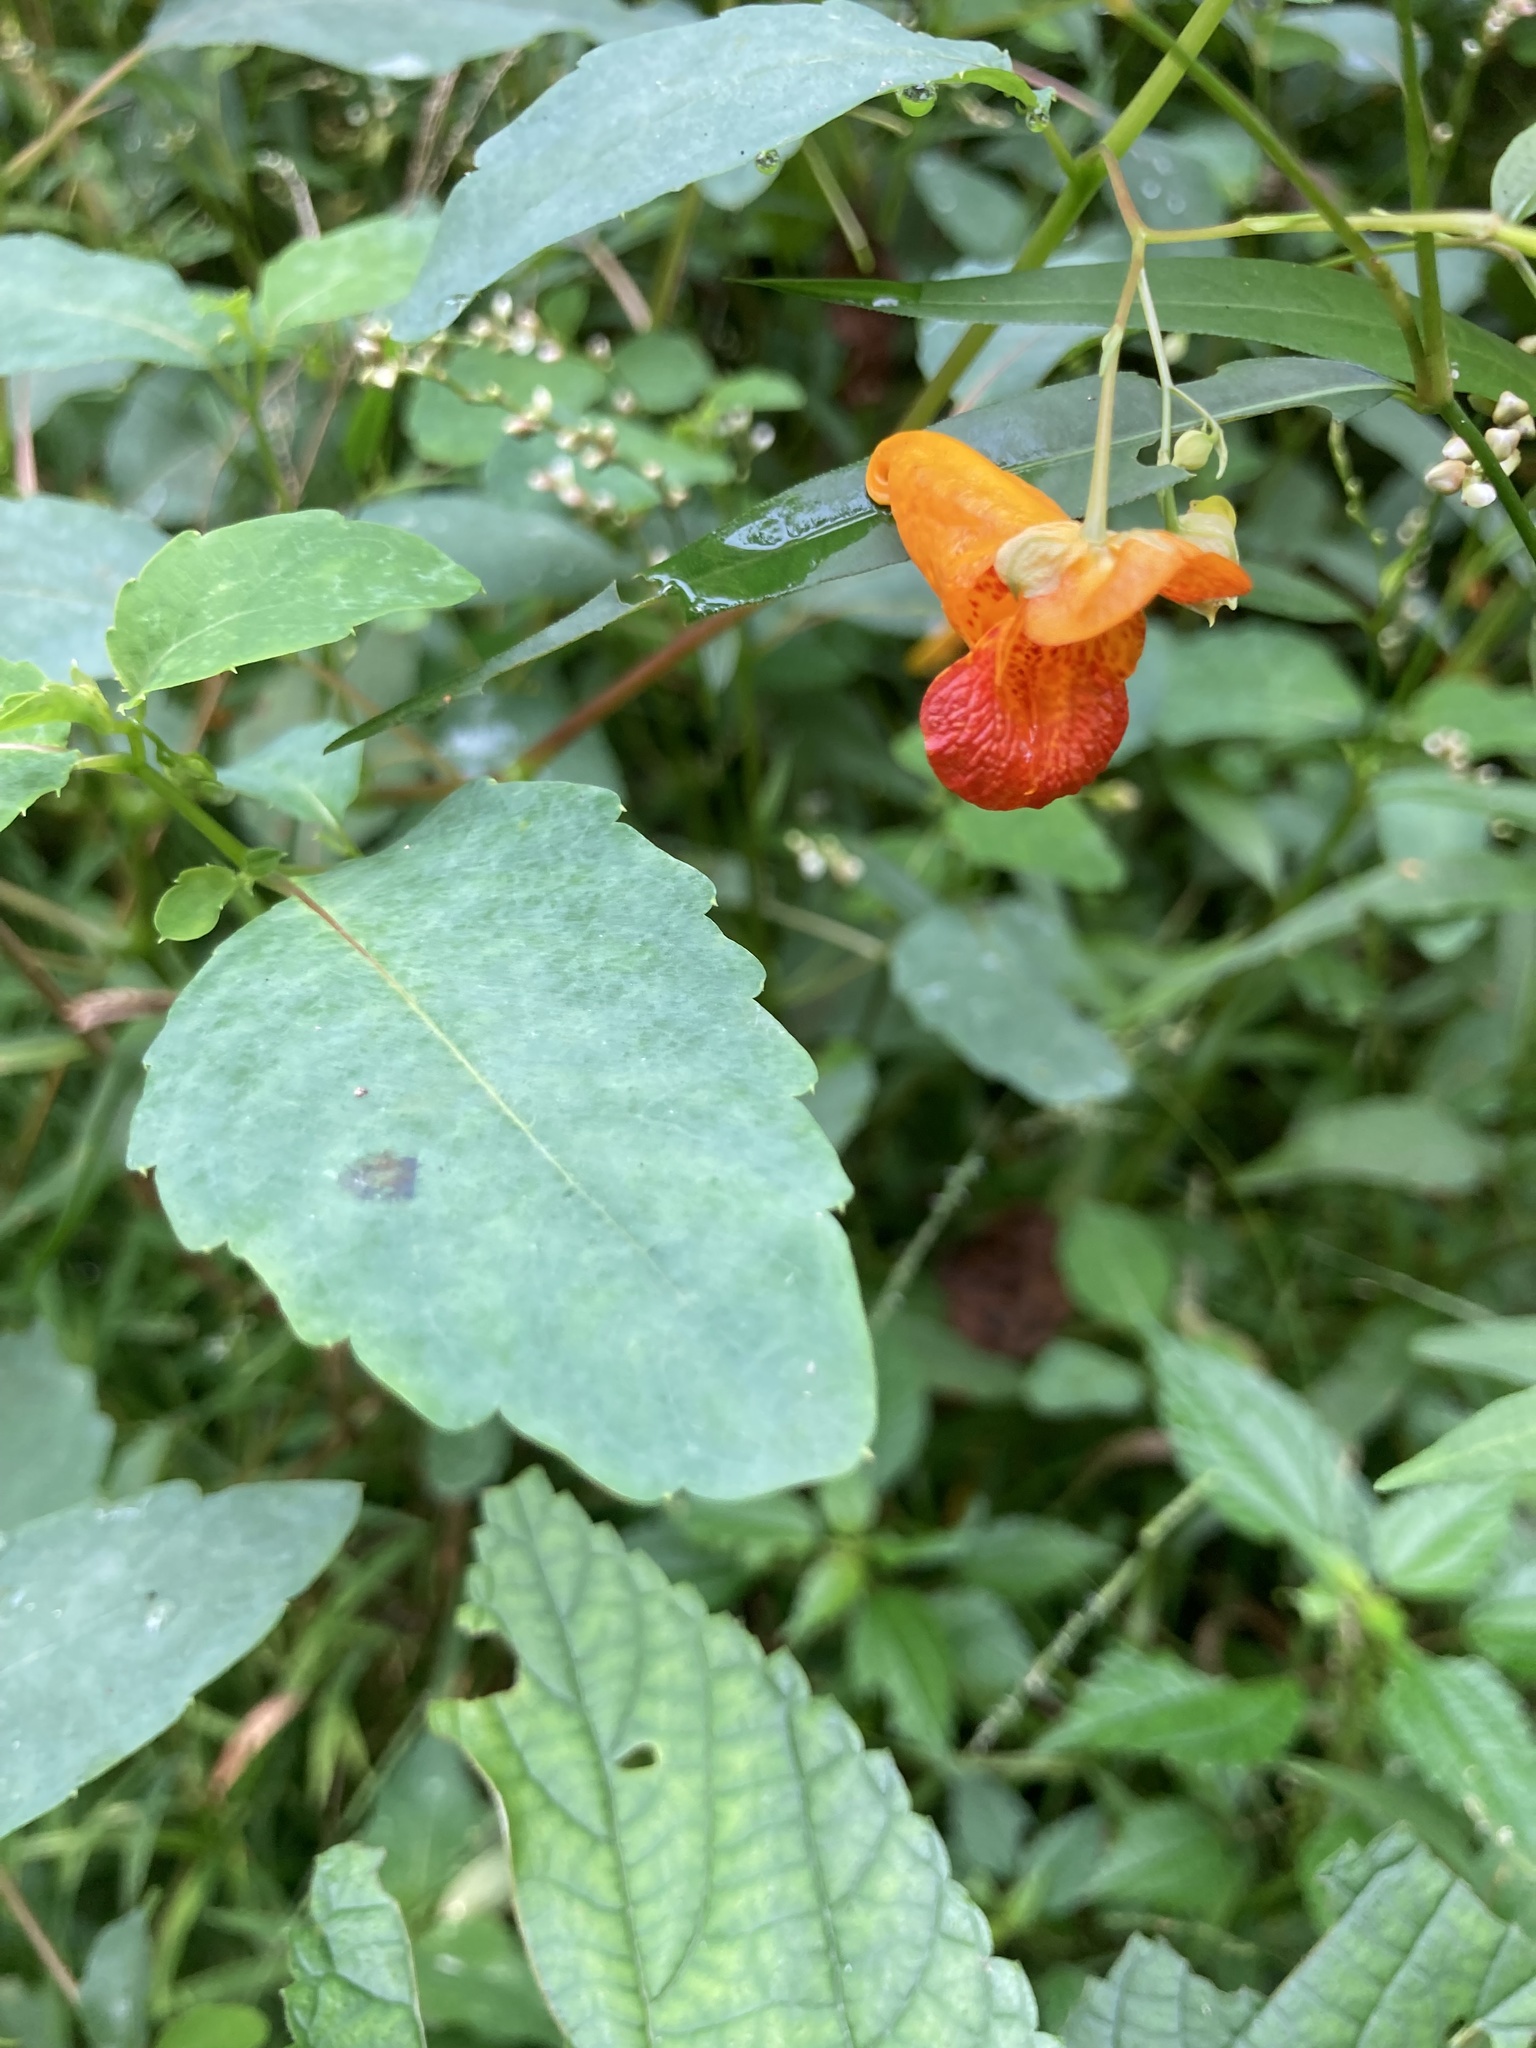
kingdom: Plantae
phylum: Tracheophyta
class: Magnoliopsida
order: Ericales
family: Balsaminaceae
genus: Impatiens
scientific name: Impatiens capensis
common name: Orange balsam
